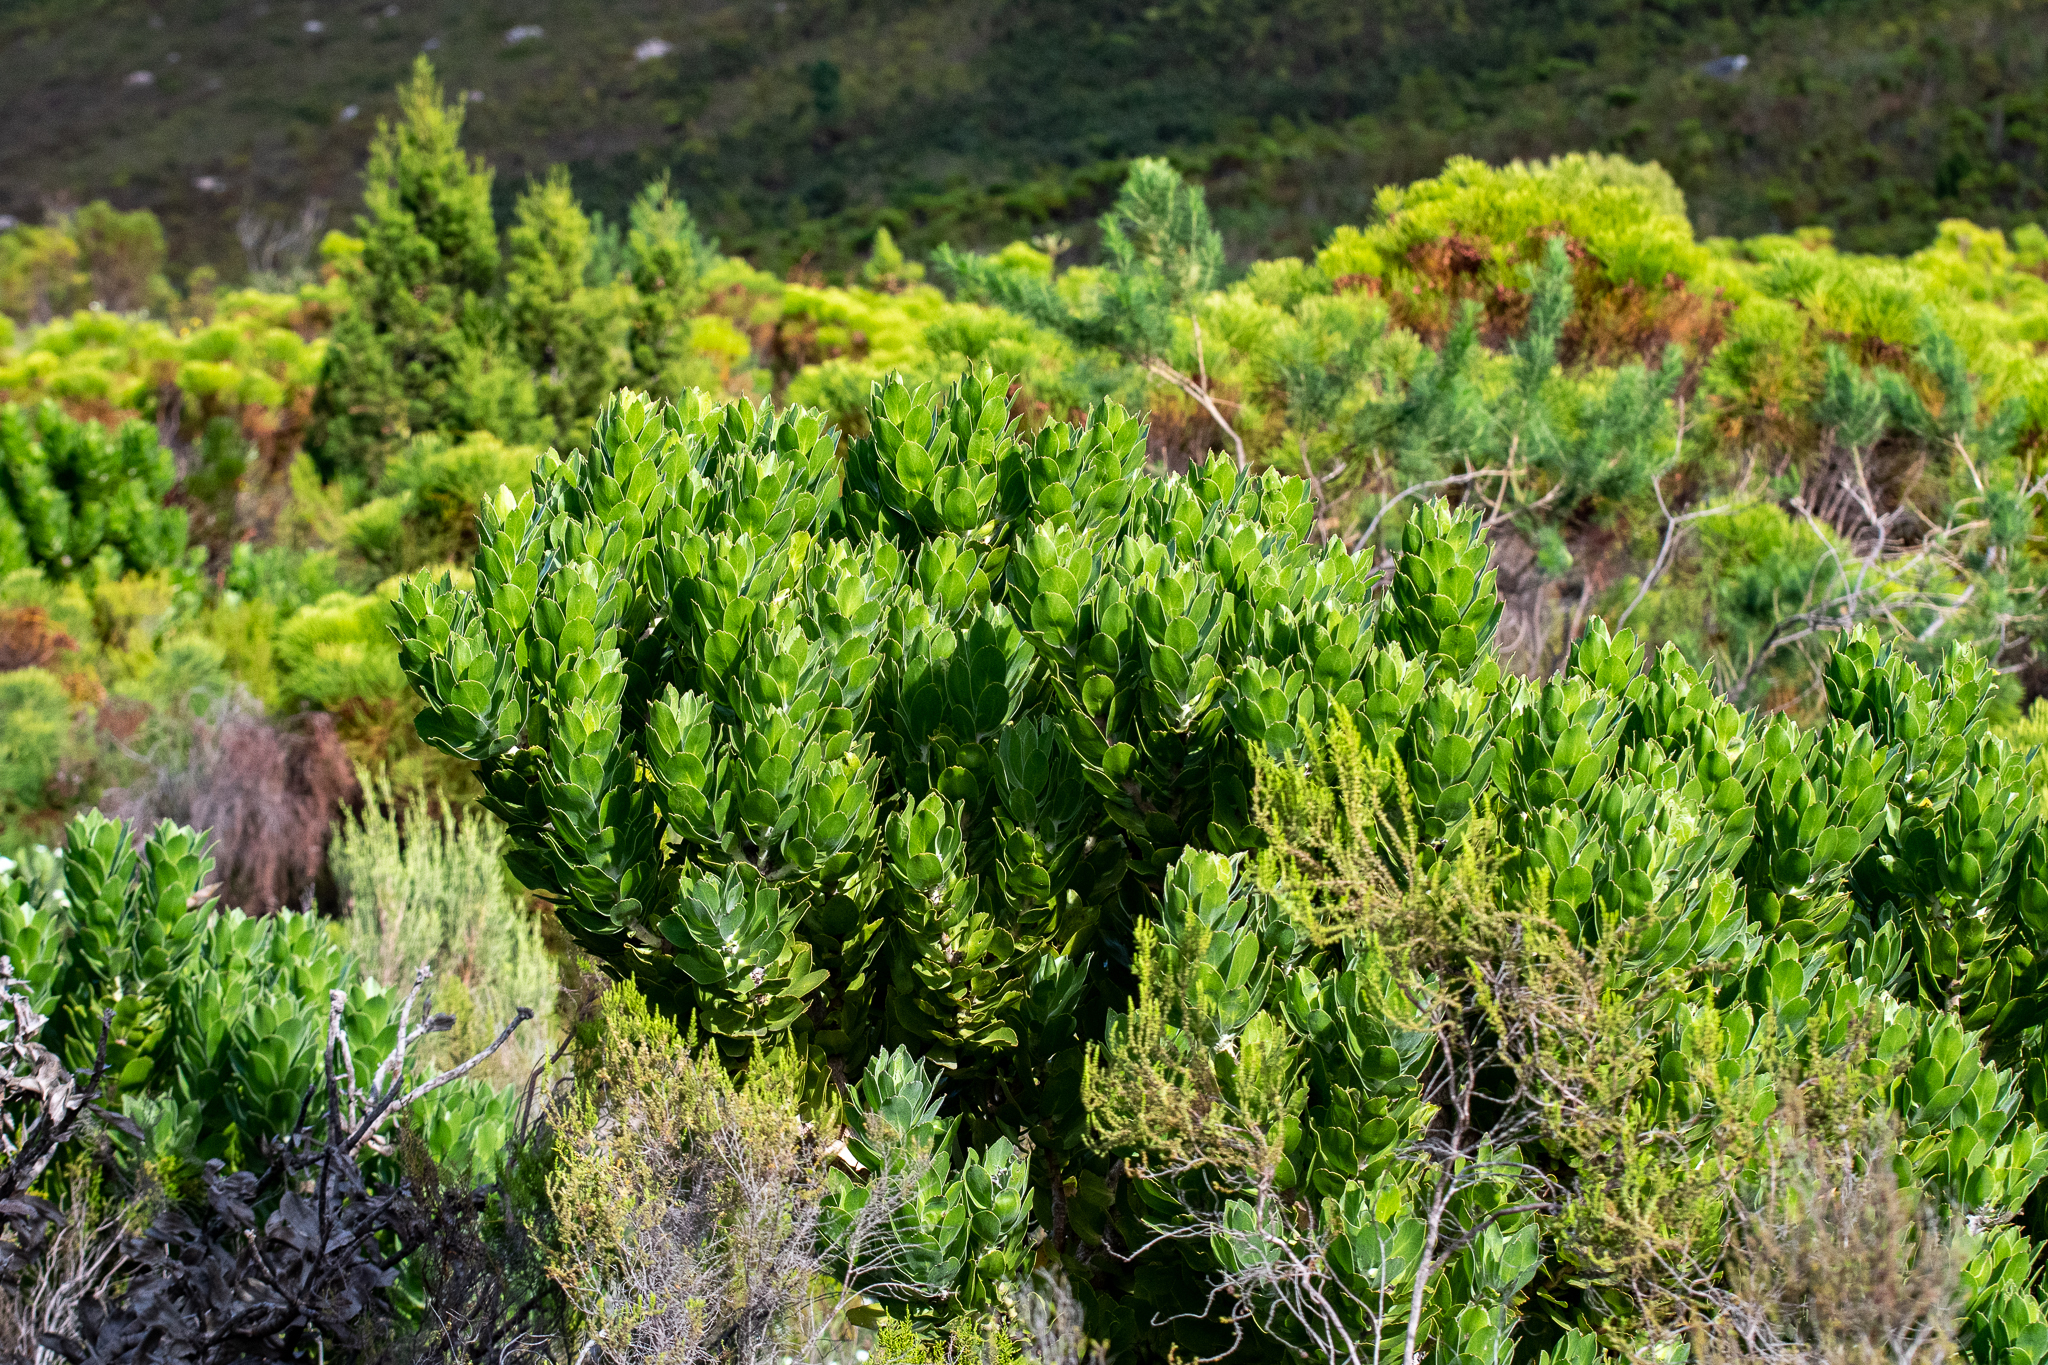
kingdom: Plantae
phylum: Tracheophyta
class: Magnoliopsida
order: Proteales
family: Proteaceae
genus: Leucospermum
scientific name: Leucospermum conocarpodendron
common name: Tree pincushion
